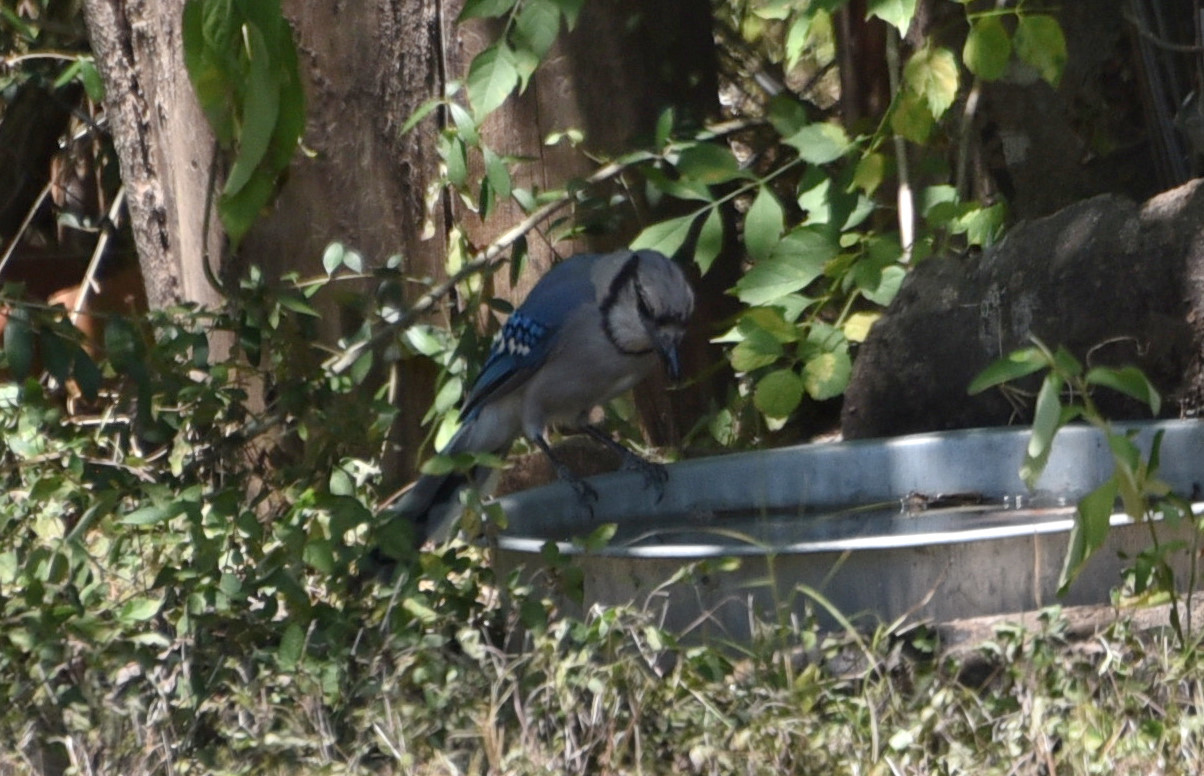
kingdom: Animalia
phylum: Chordata
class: Aves
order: Passeriformes
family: Corvidae
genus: Cyanocitta
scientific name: Cyanocitta cristata
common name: Blue jay
